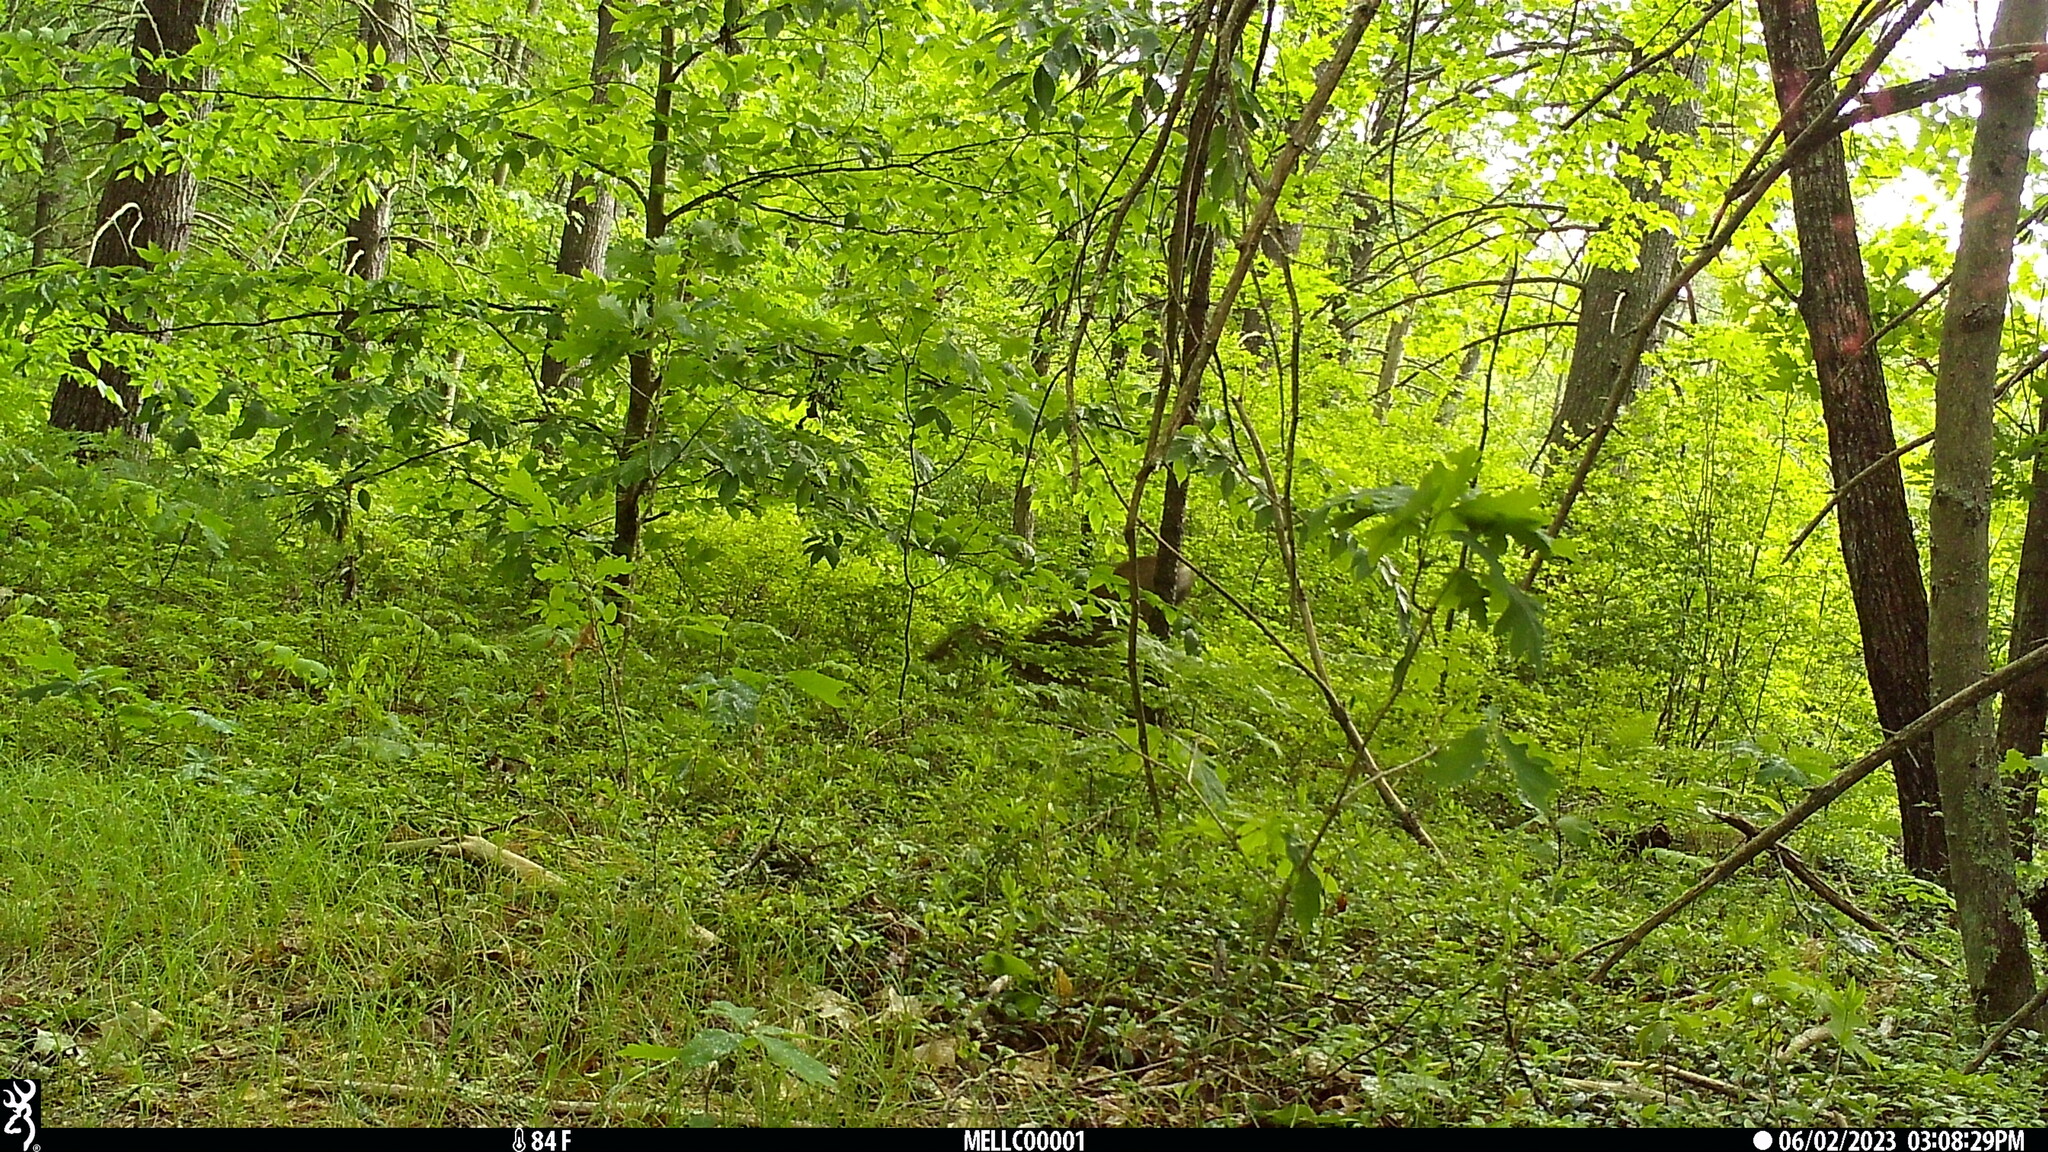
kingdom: Animalia
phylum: Chordata
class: Mammalia
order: Artiodactyla
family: Cervidae
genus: Odocoileus
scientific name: Odocoileus virginianus
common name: White-tailed deer
